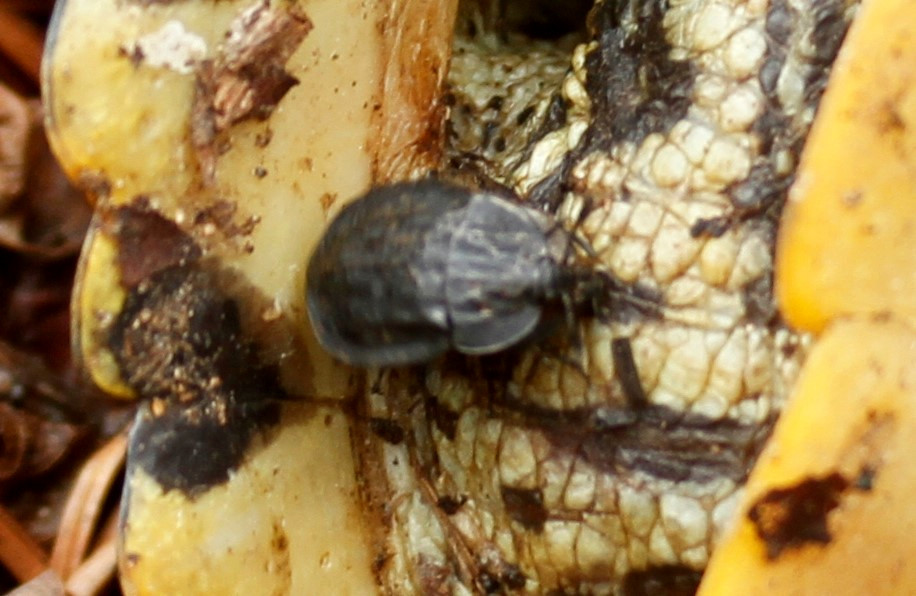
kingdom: Animalia
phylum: Arthropoda
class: Insecta
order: Coleoptera
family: Staphylinidae
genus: Oiceoptoma
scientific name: Oiceoptoma inaequale
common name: Ridged carrion beetle
